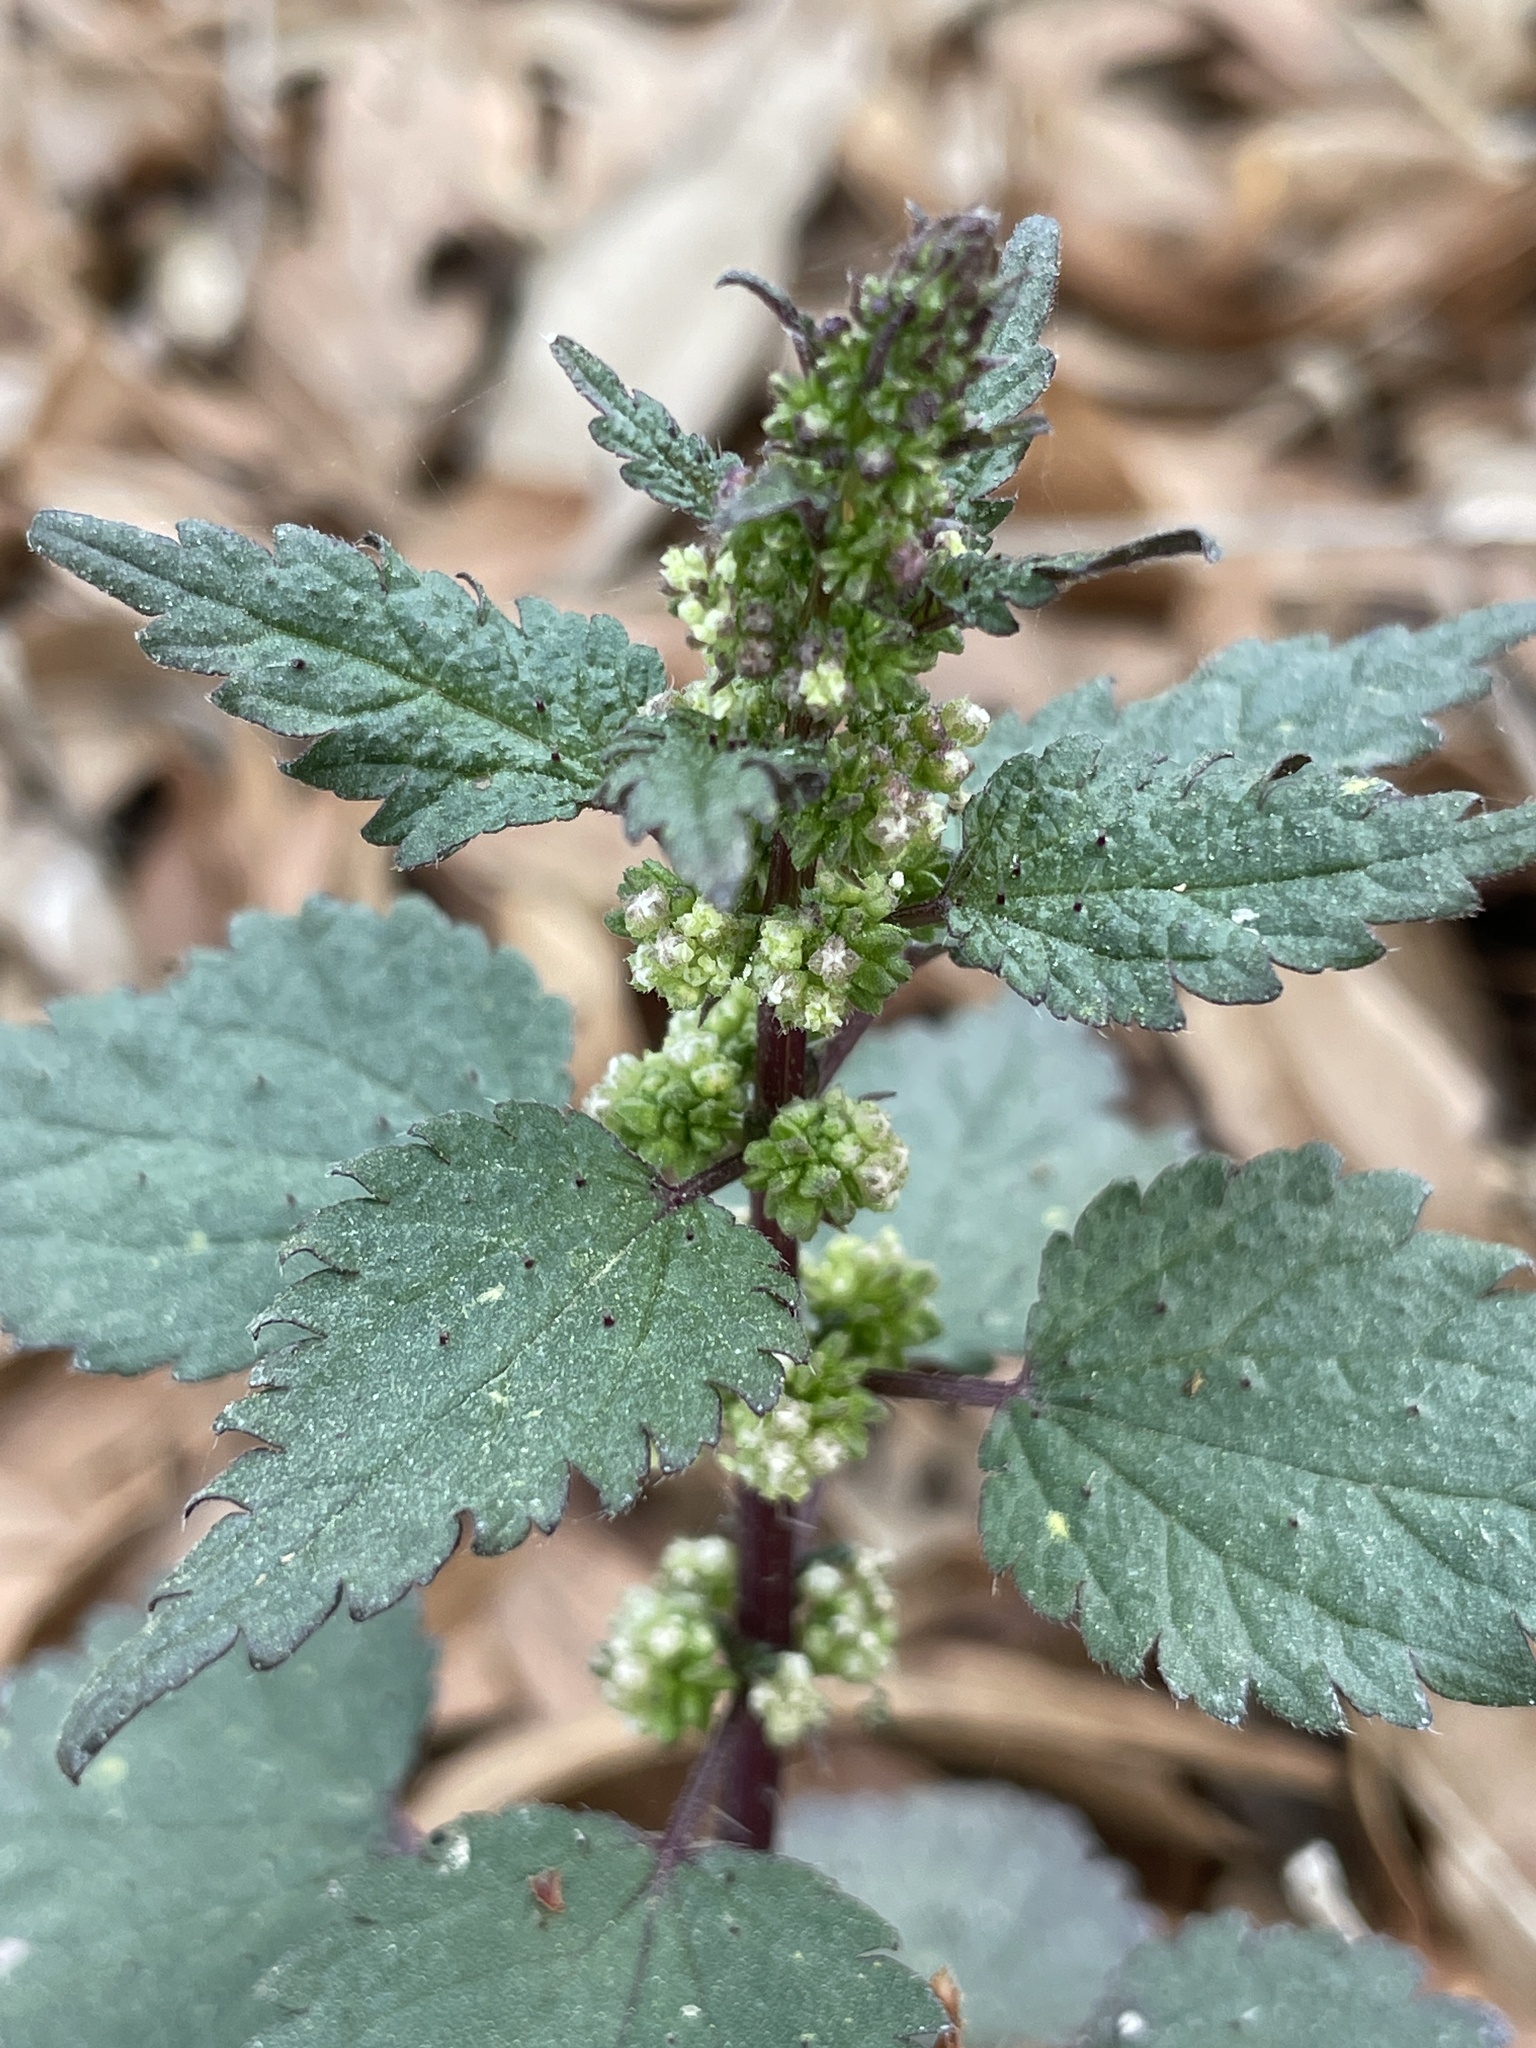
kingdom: Plantae
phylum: Tracheophyta
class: Magnoliopsida
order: Rosales
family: Urticaceae
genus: Urtica
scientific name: Urtica chamaedryoides
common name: Heart-leaf nettle
